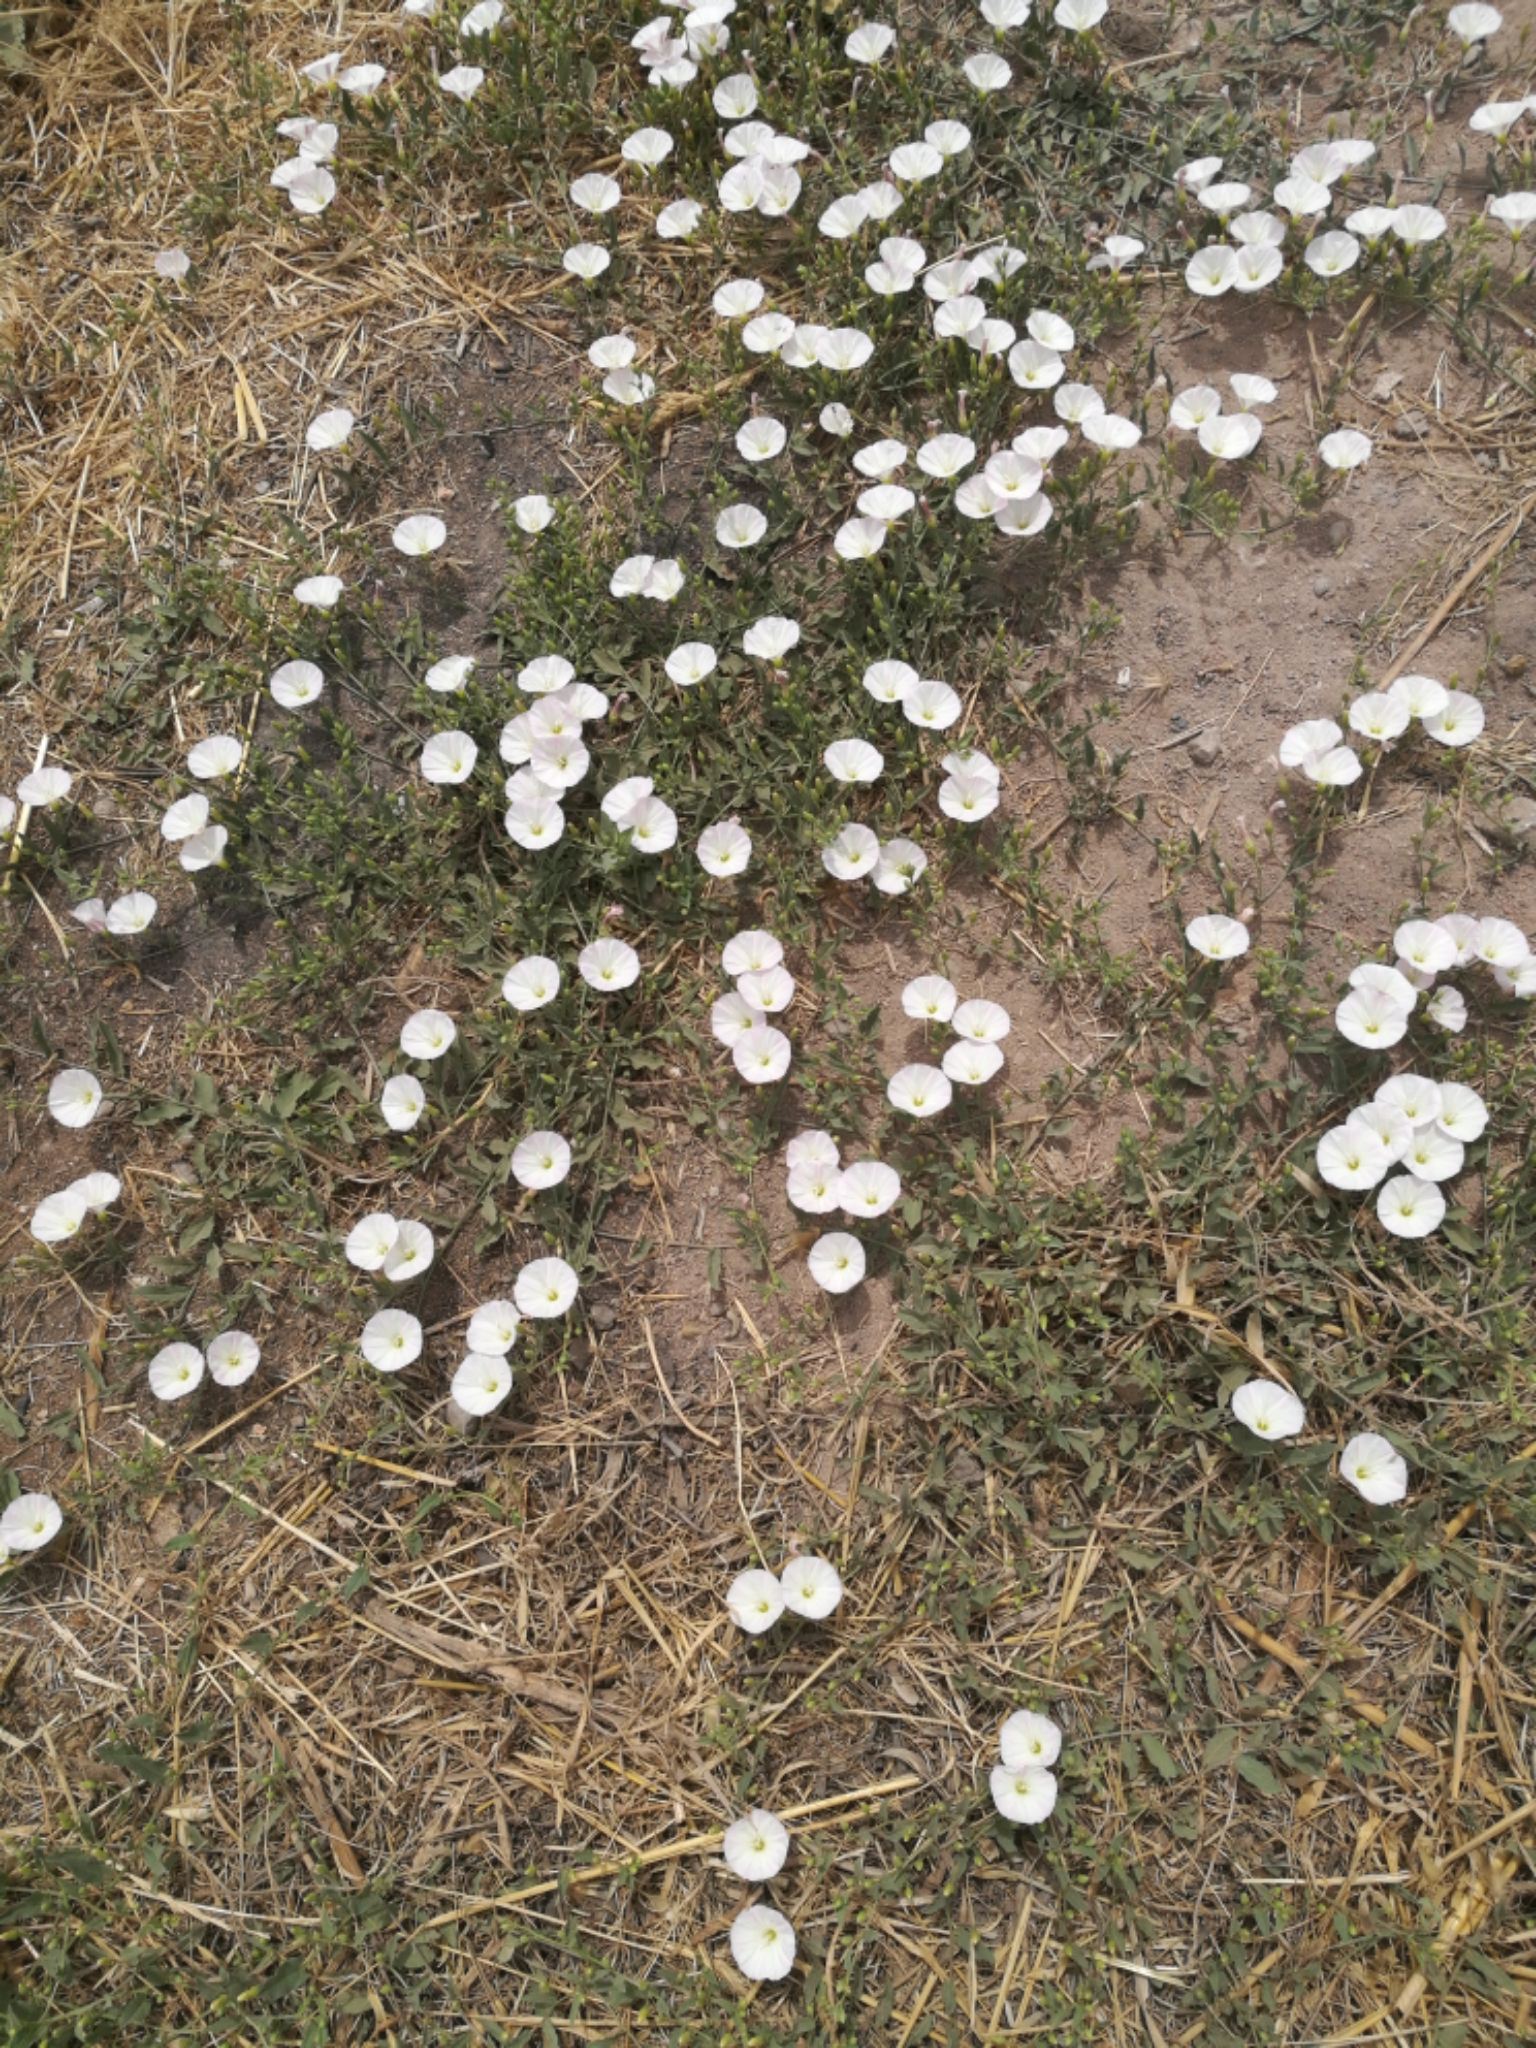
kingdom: Plantae
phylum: Tracheophyta
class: Magnoliopsida
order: Solanales
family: Convolvulaceae
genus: Convolvulus
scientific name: Convolvulus arvensis
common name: Field bindweed
